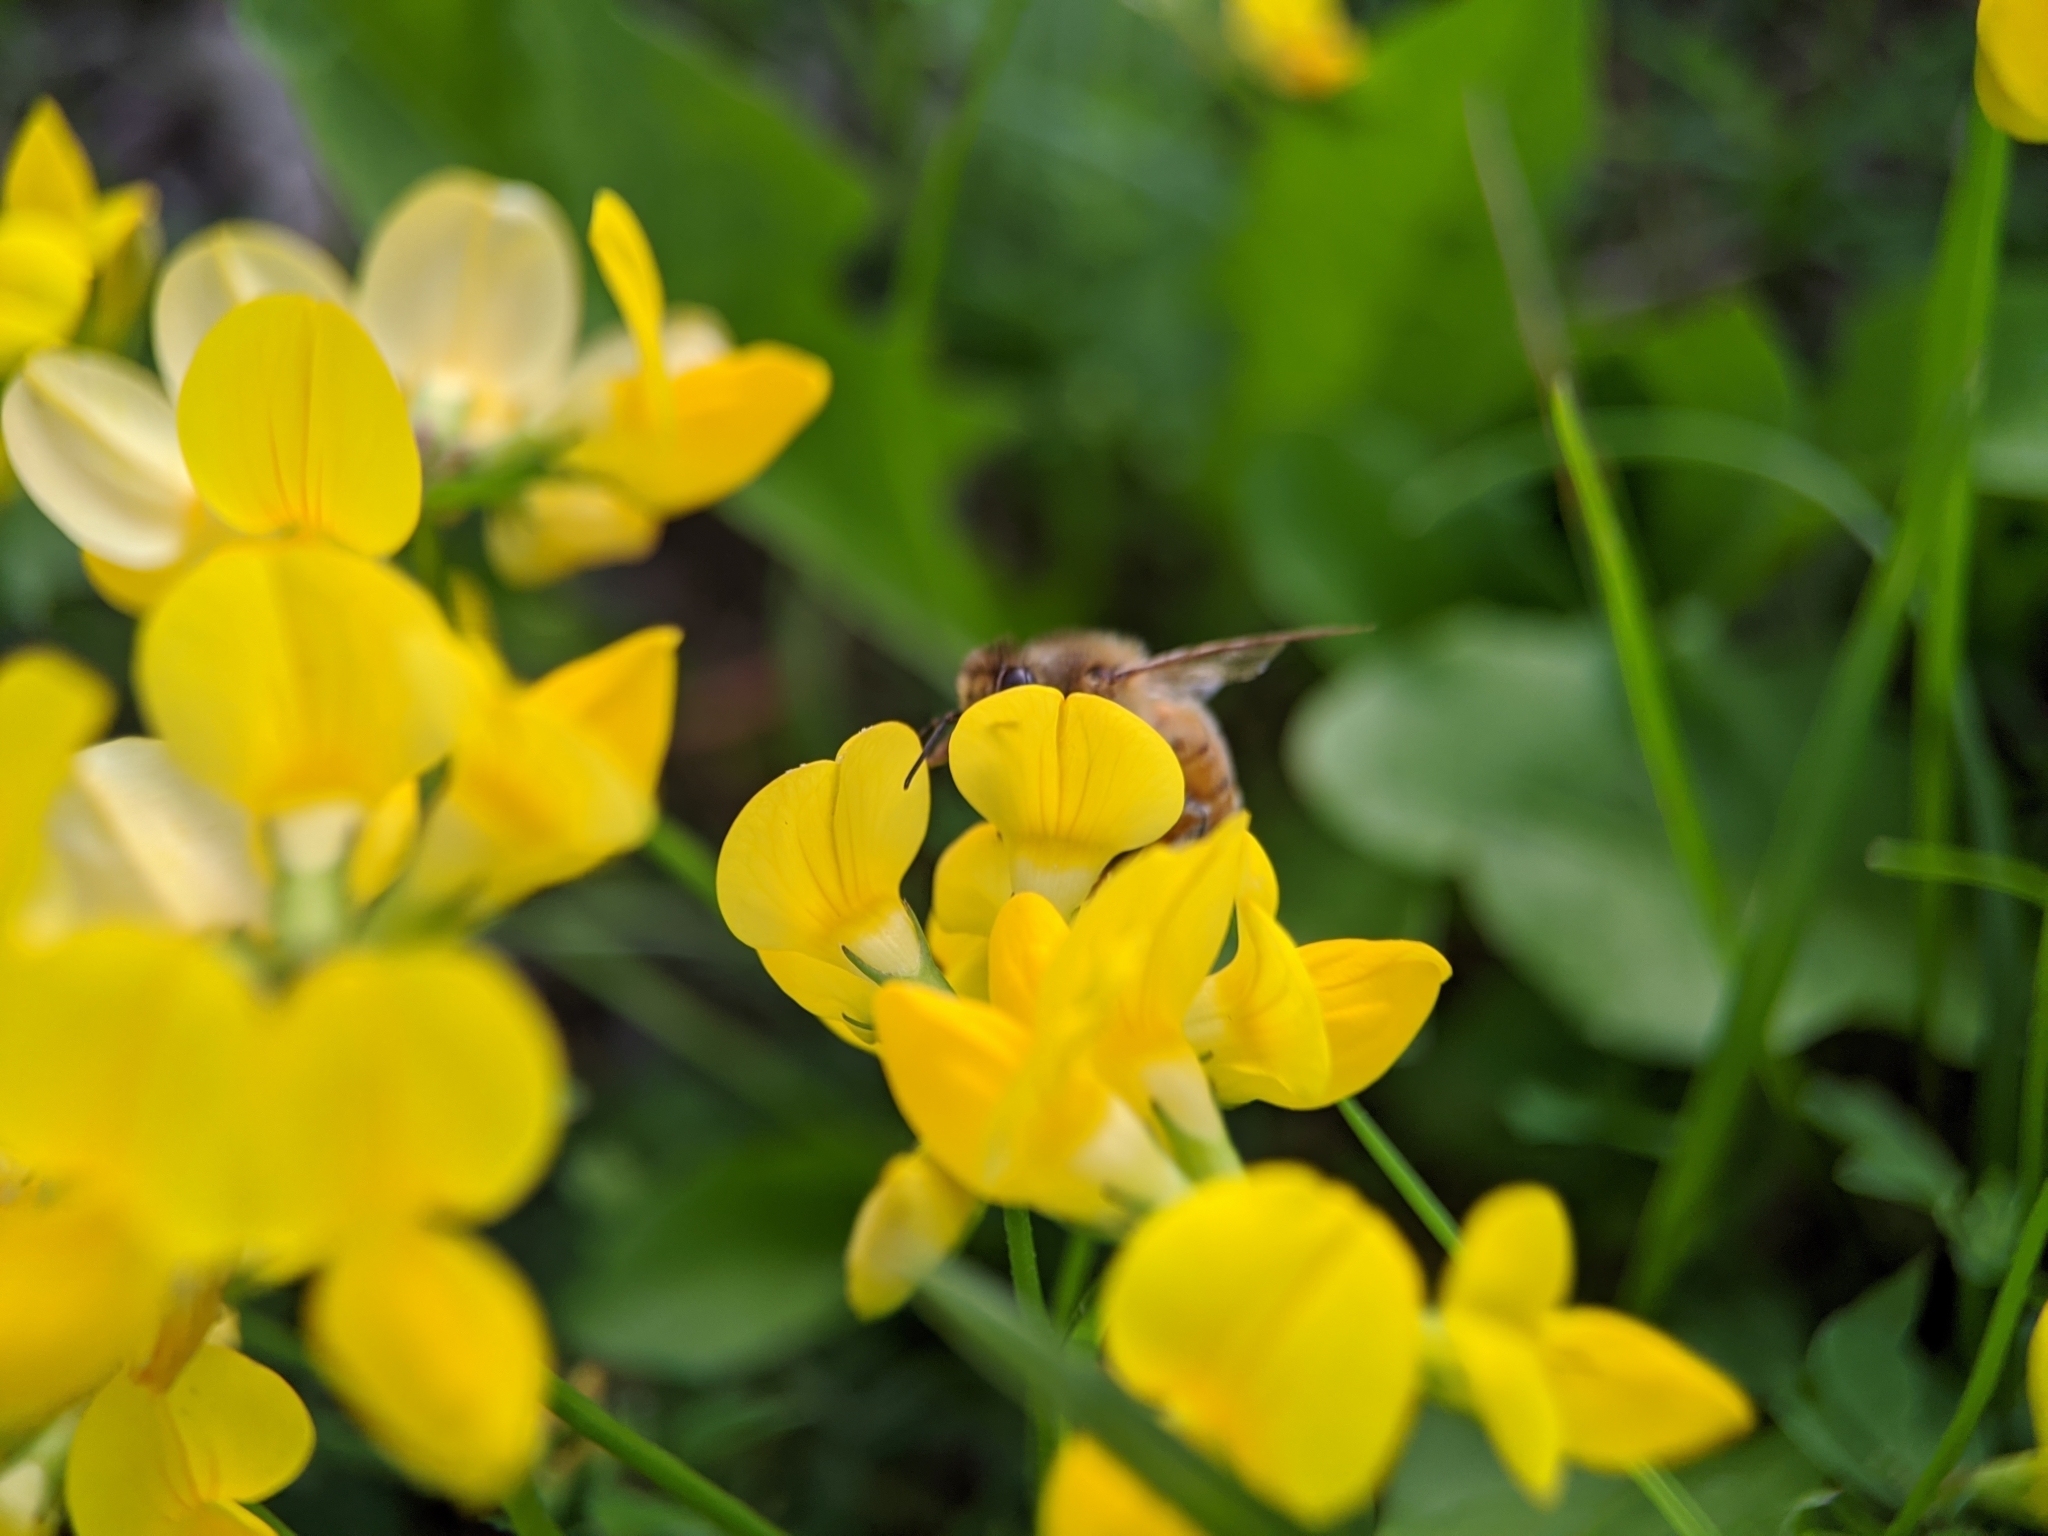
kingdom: Animalia
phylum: Arthropoda
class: Insecta
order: Hymenoptera
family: Apidae
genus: Apis
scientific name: Apis mellifera
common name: Honey bee
